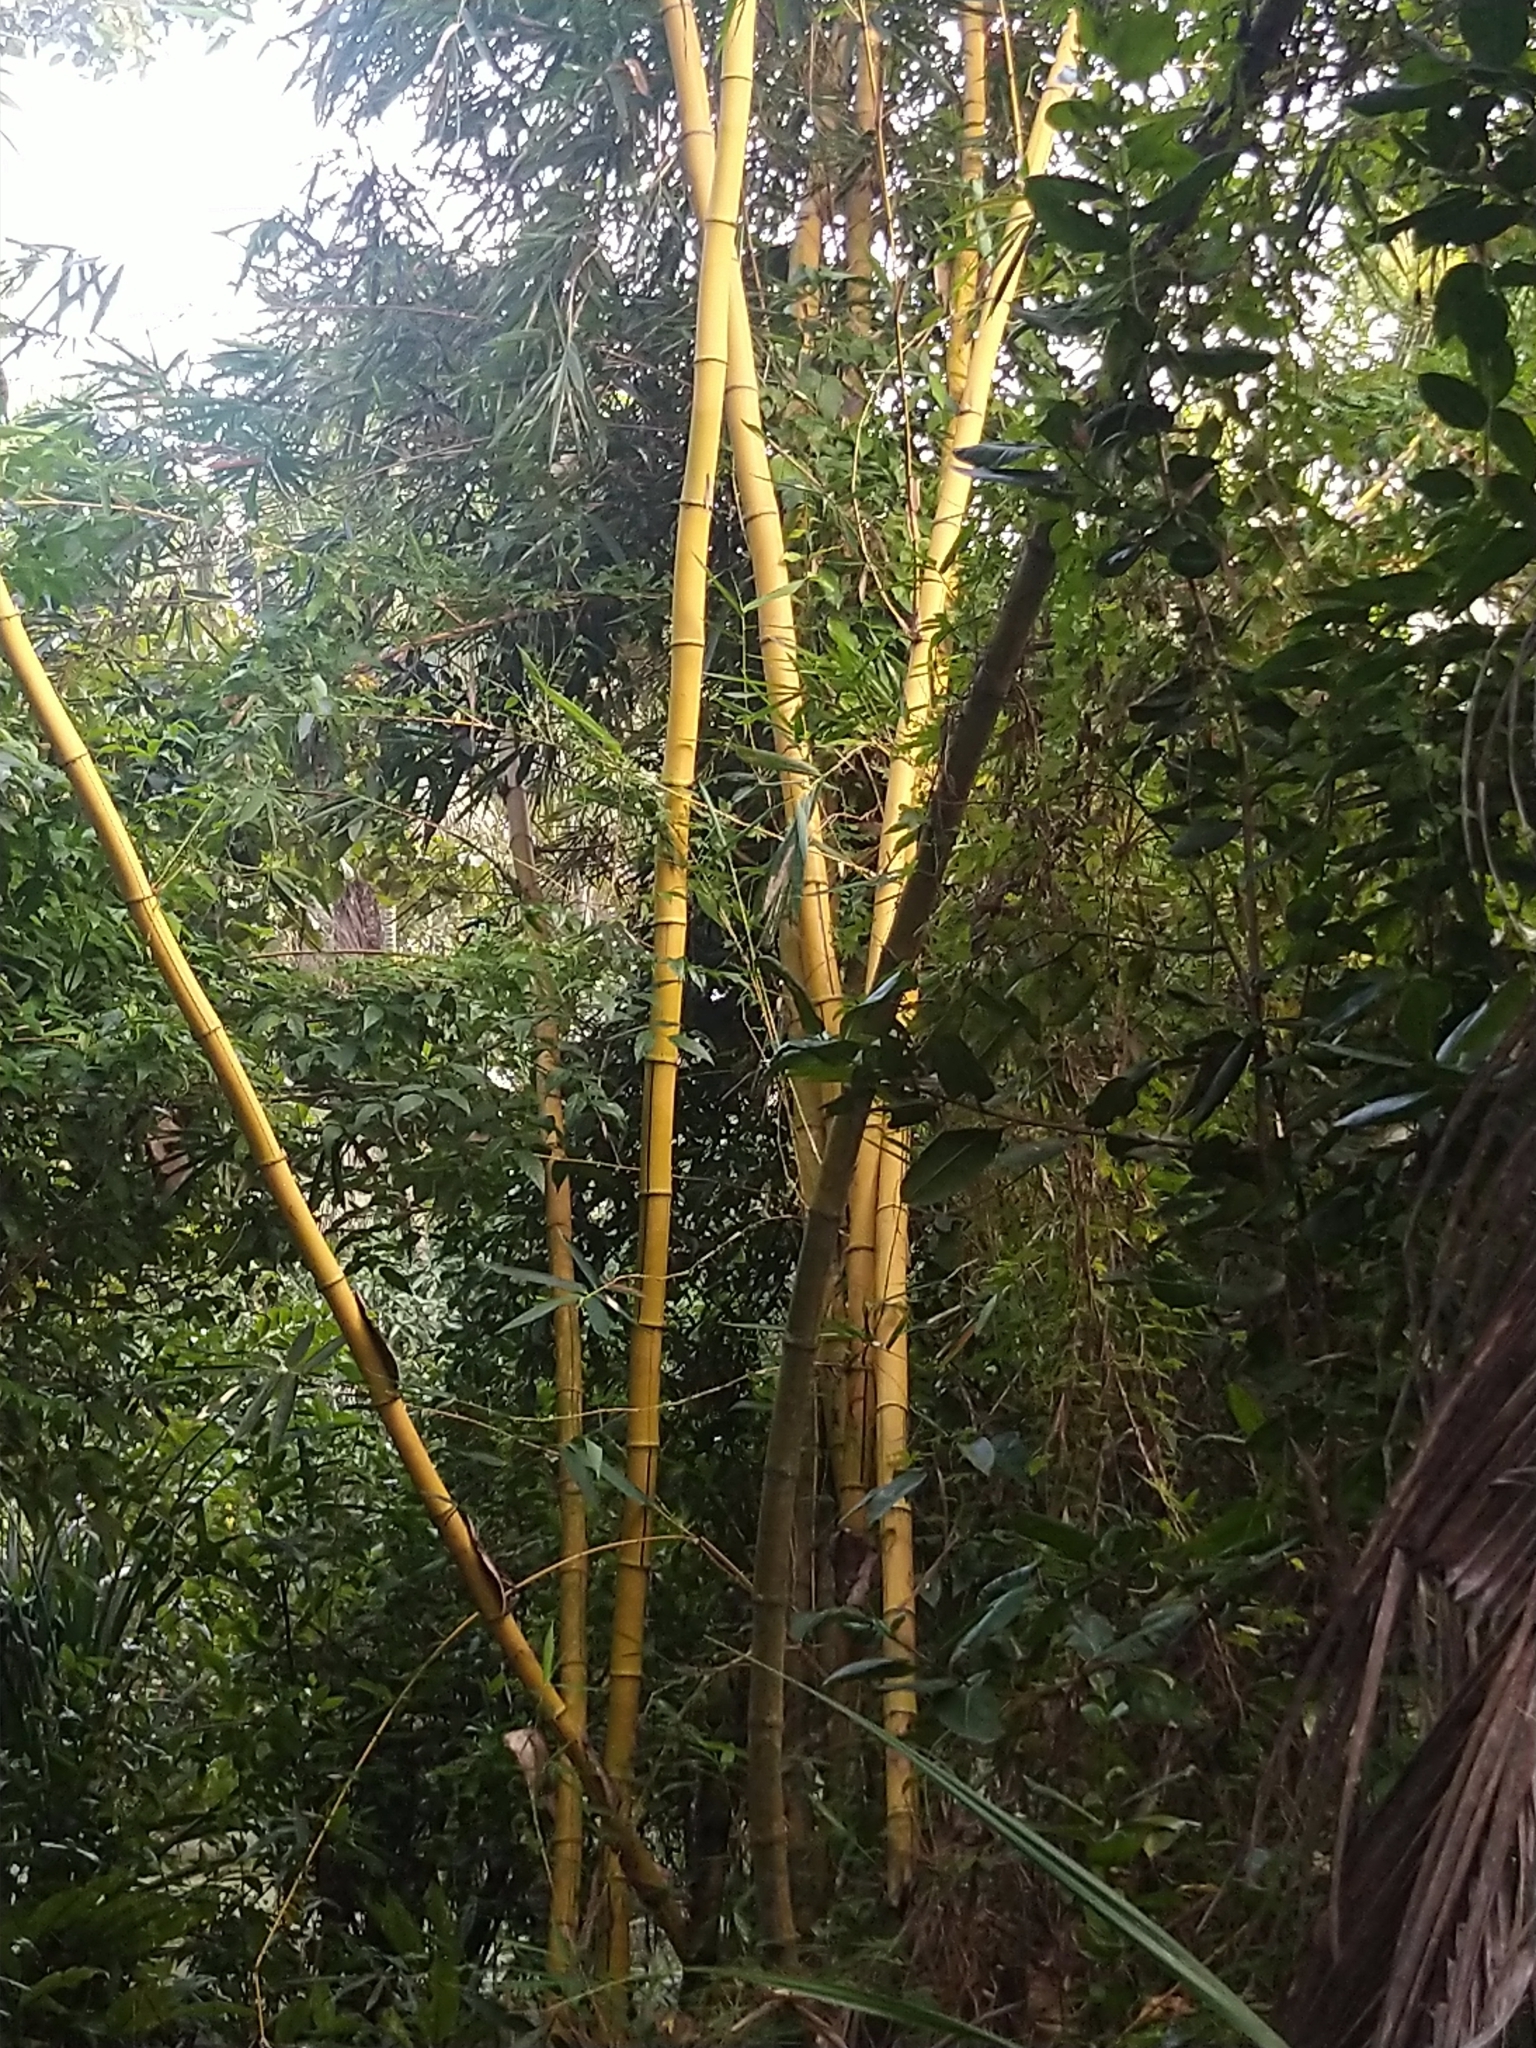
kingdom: Plantae
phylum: Tracheophyta
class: Liliopsida
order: Poales
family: Poaceae
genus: Bambusa
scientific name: Bambusa vulgaris
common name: Common bamboo
